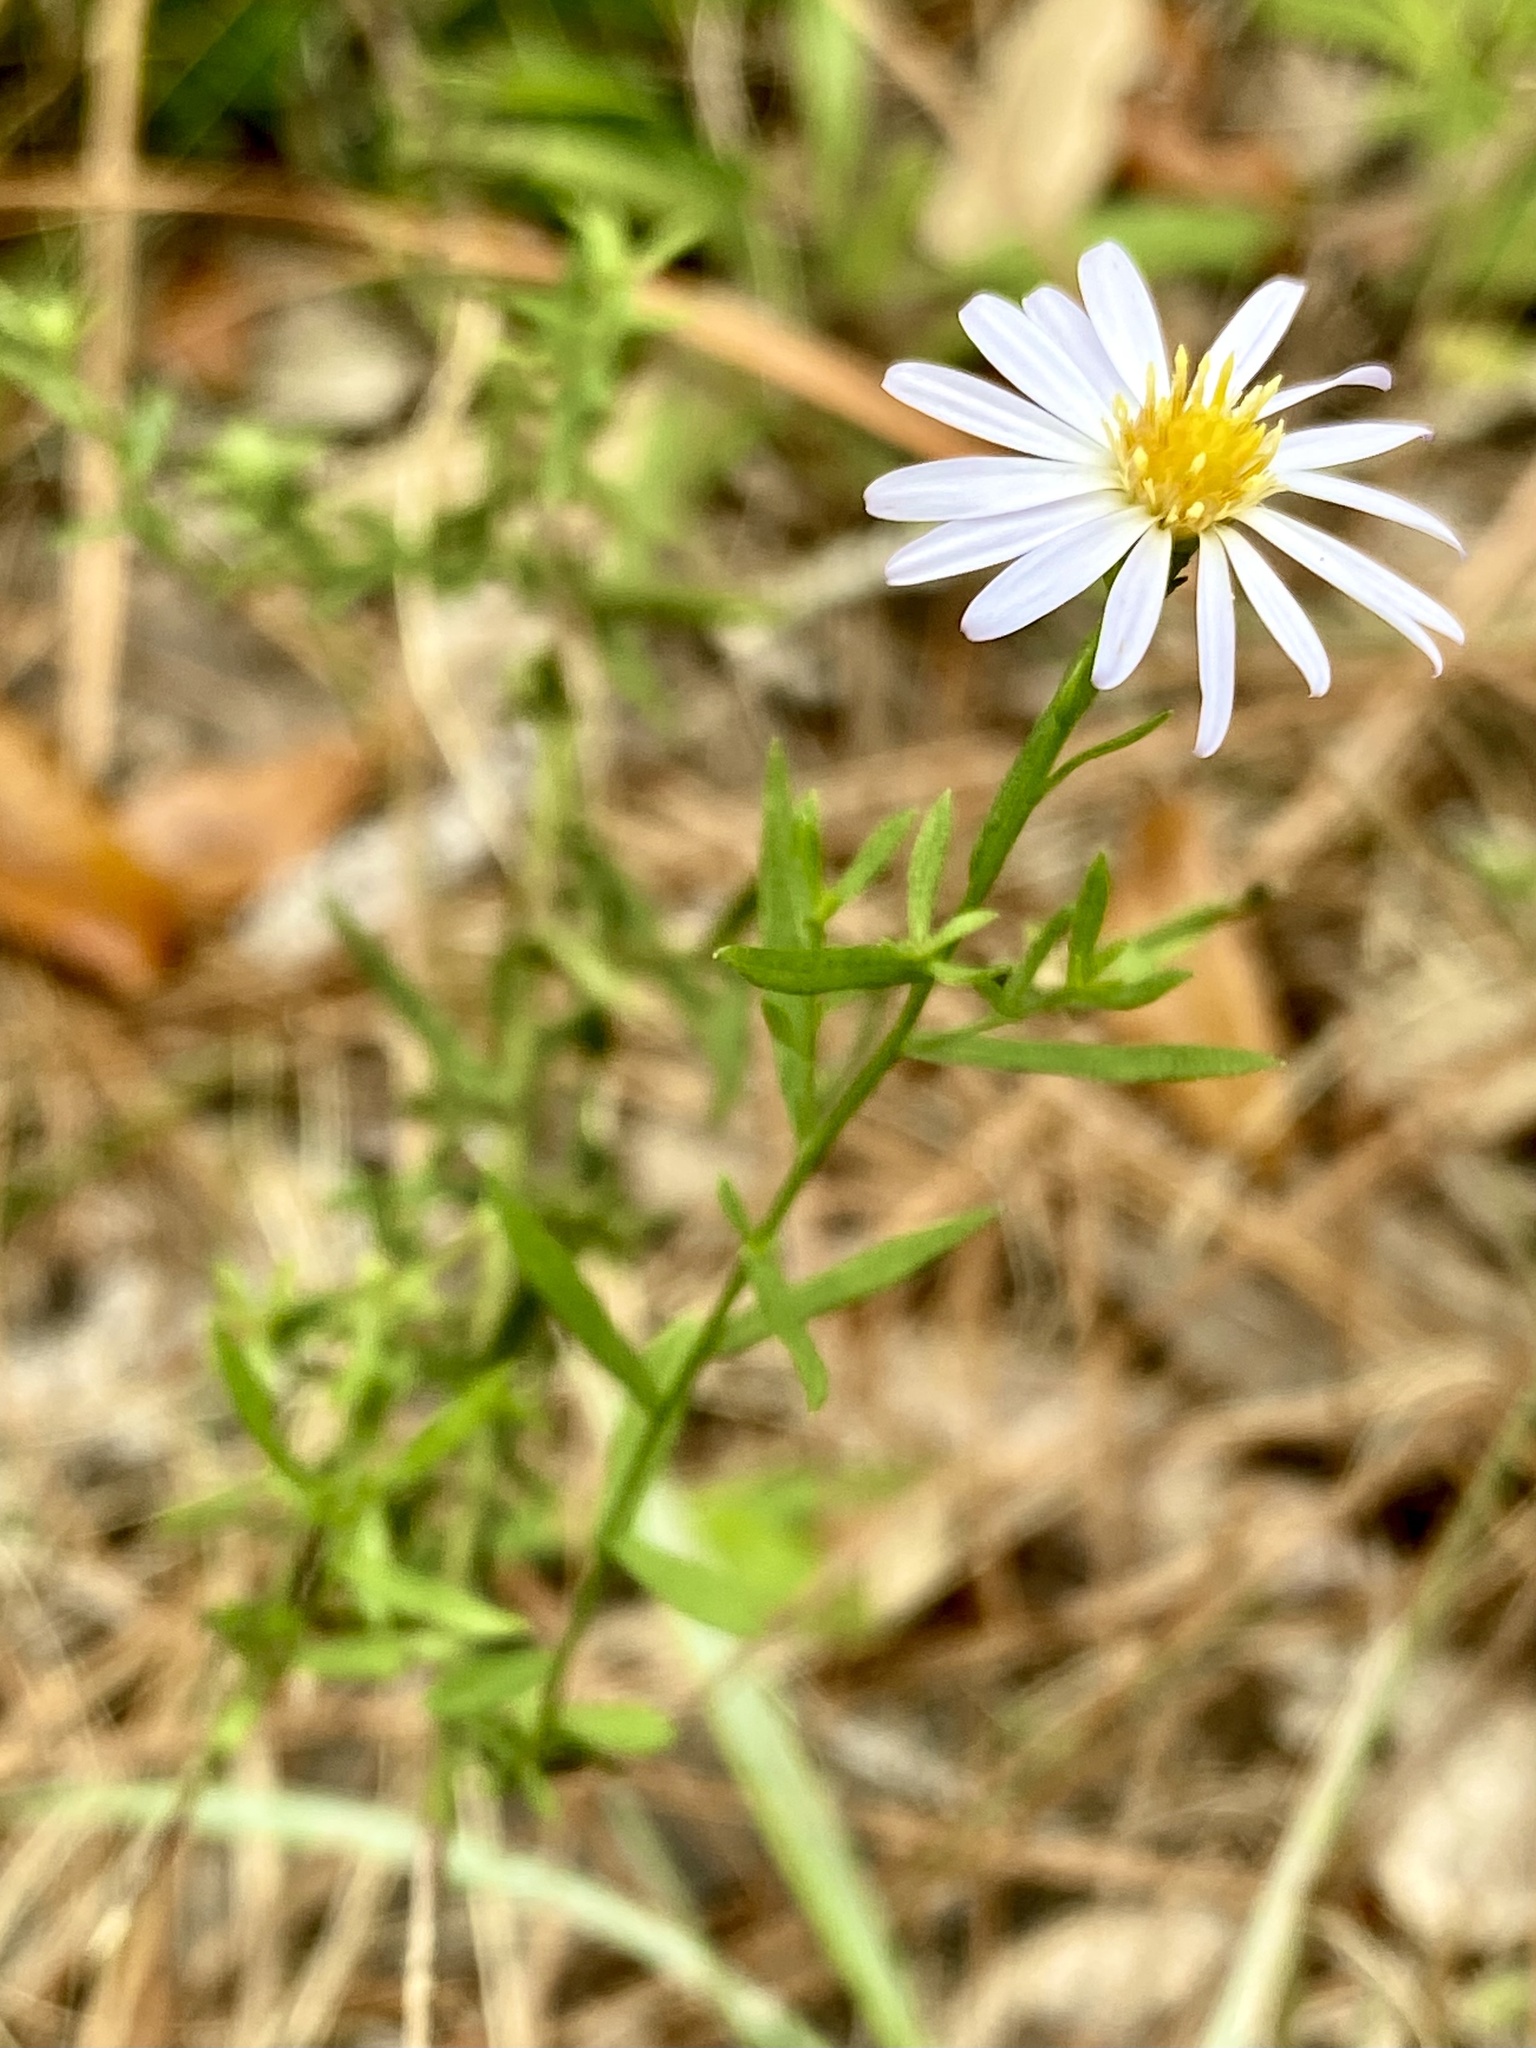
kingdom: Plantae
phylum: Tracheophyta
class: Magnoliopsida
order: Asterales
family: Asteraceae
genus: Symphyotrichum
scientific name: Symphyotrichum dumosum
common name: Bushy aster
